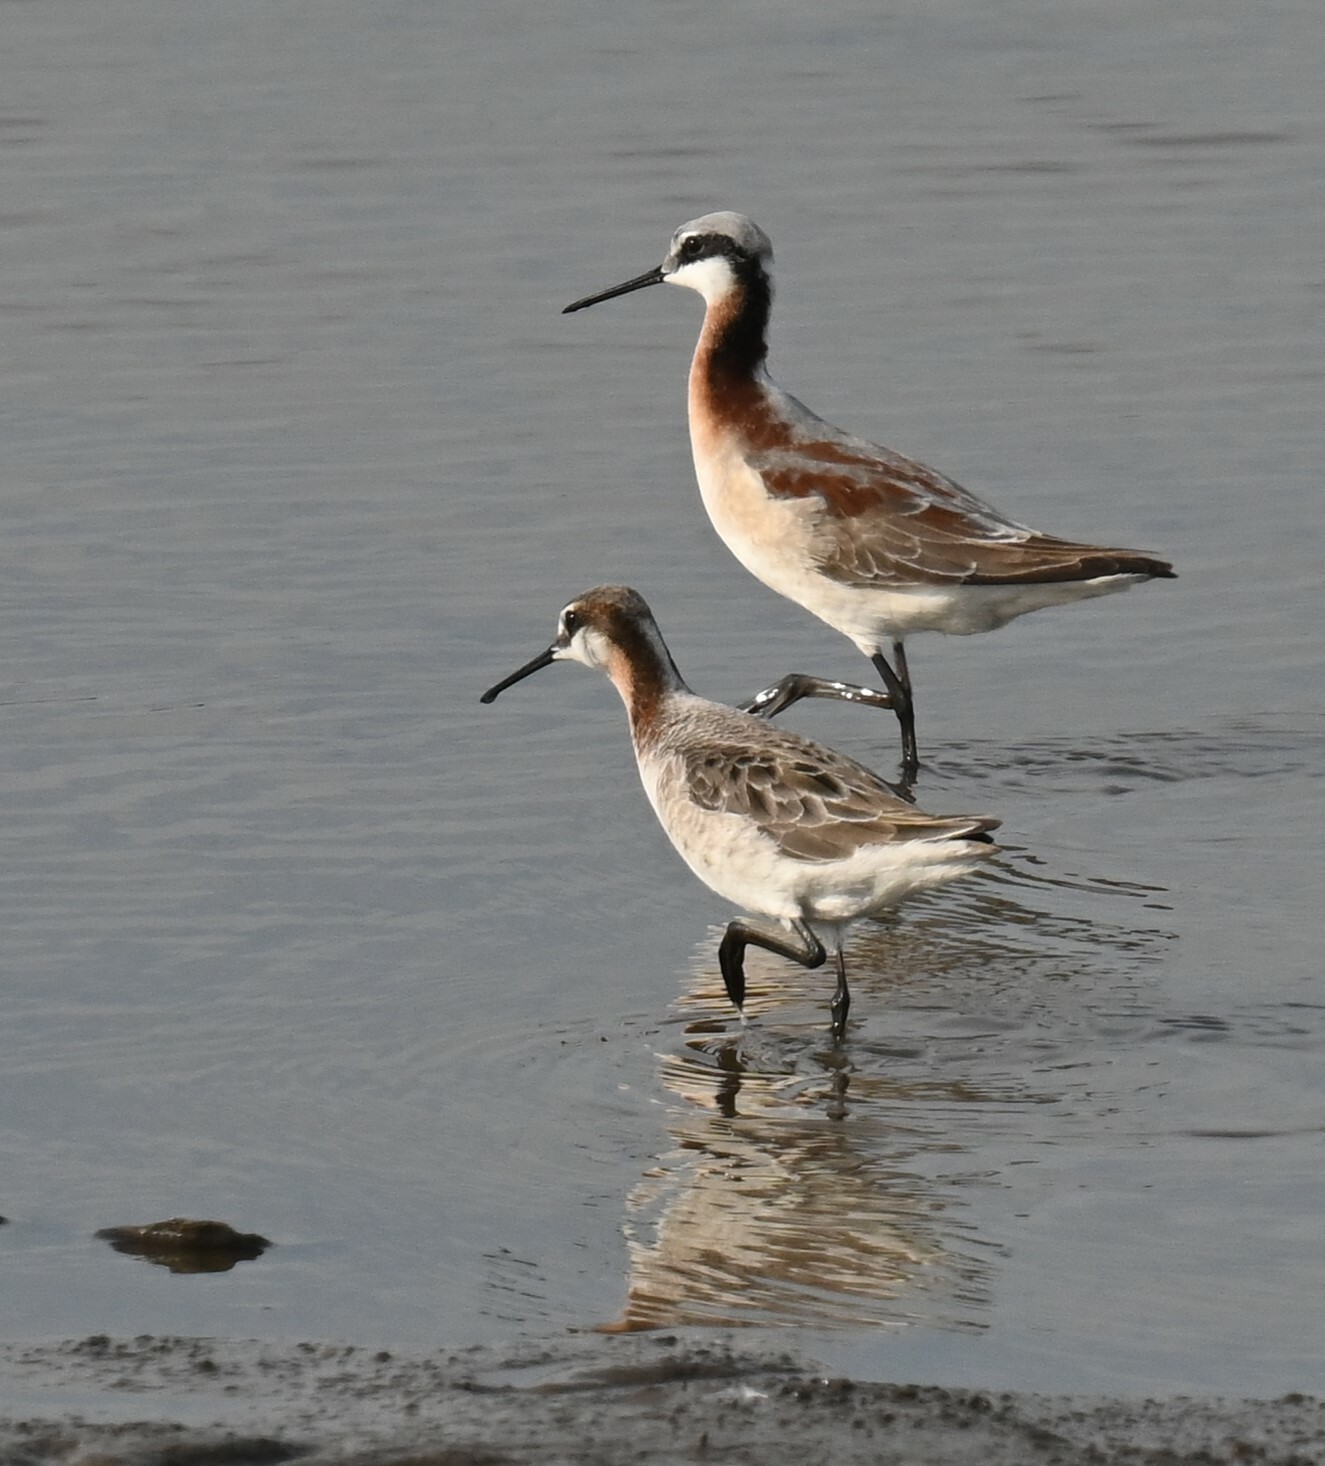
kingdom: Animalia
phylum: Chordata
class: Aves
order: Charadriiformes
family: Scolopacidae
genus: Phalaropus
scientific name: Phalaropus tricolor
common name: Wilson's phalarope
